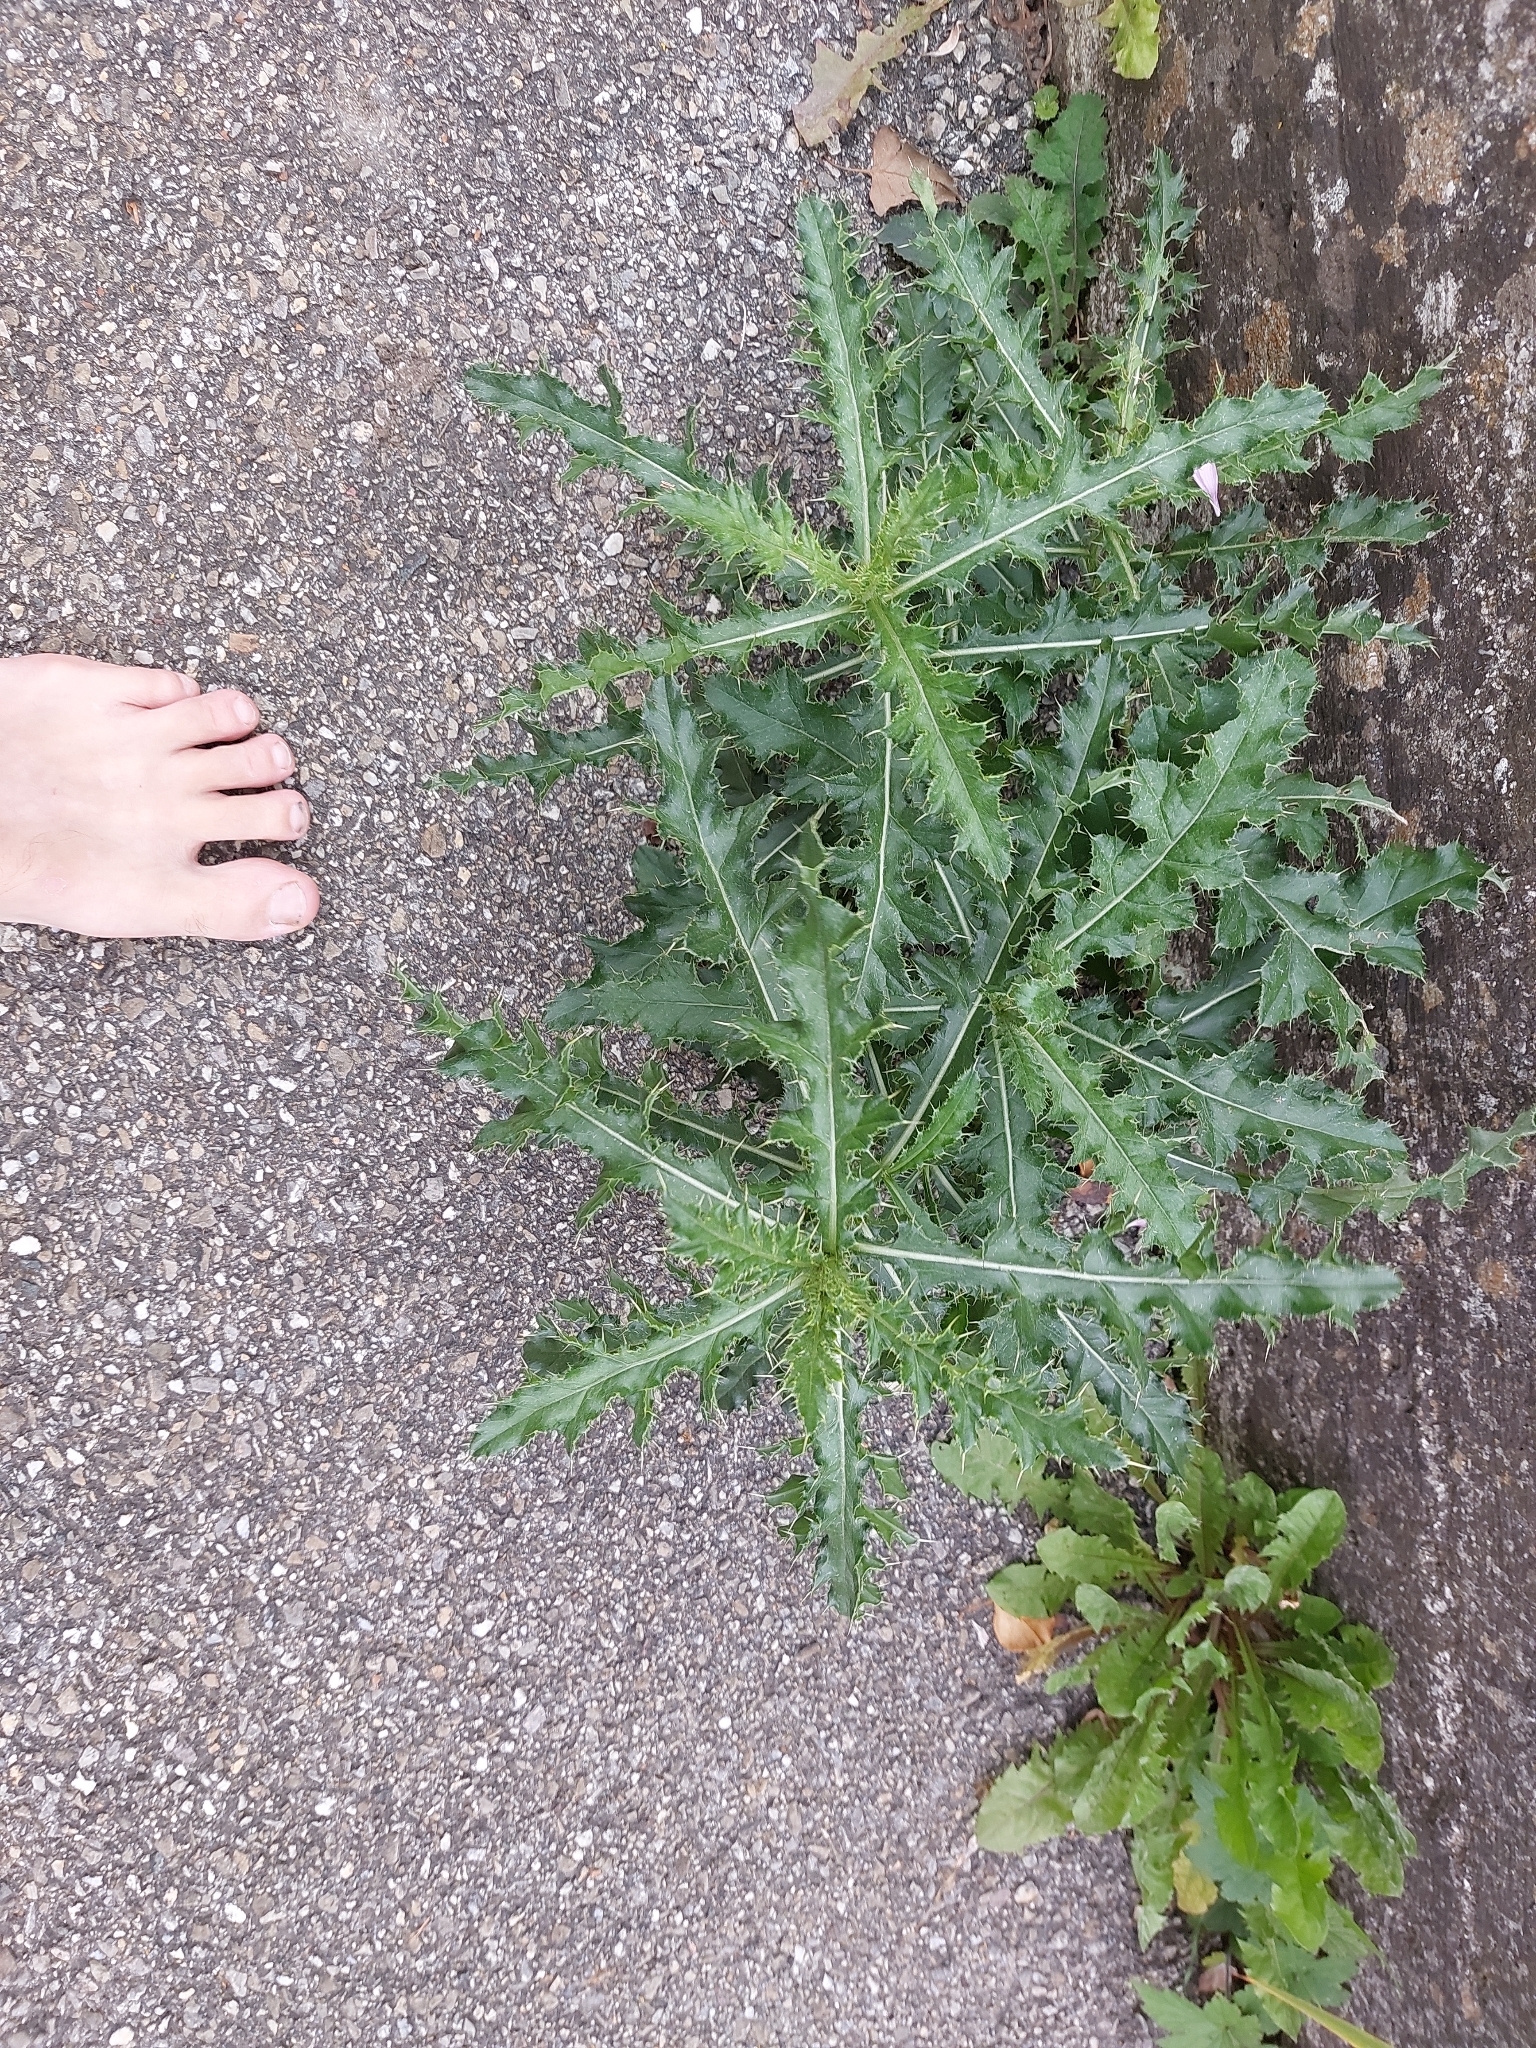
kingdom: Plantae
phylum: Tracheophyta
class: Magnoliopsida
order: Asterales
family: Asteraceae
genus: Cirsium
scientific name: Cirsium arvense
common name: Creeping thistle
